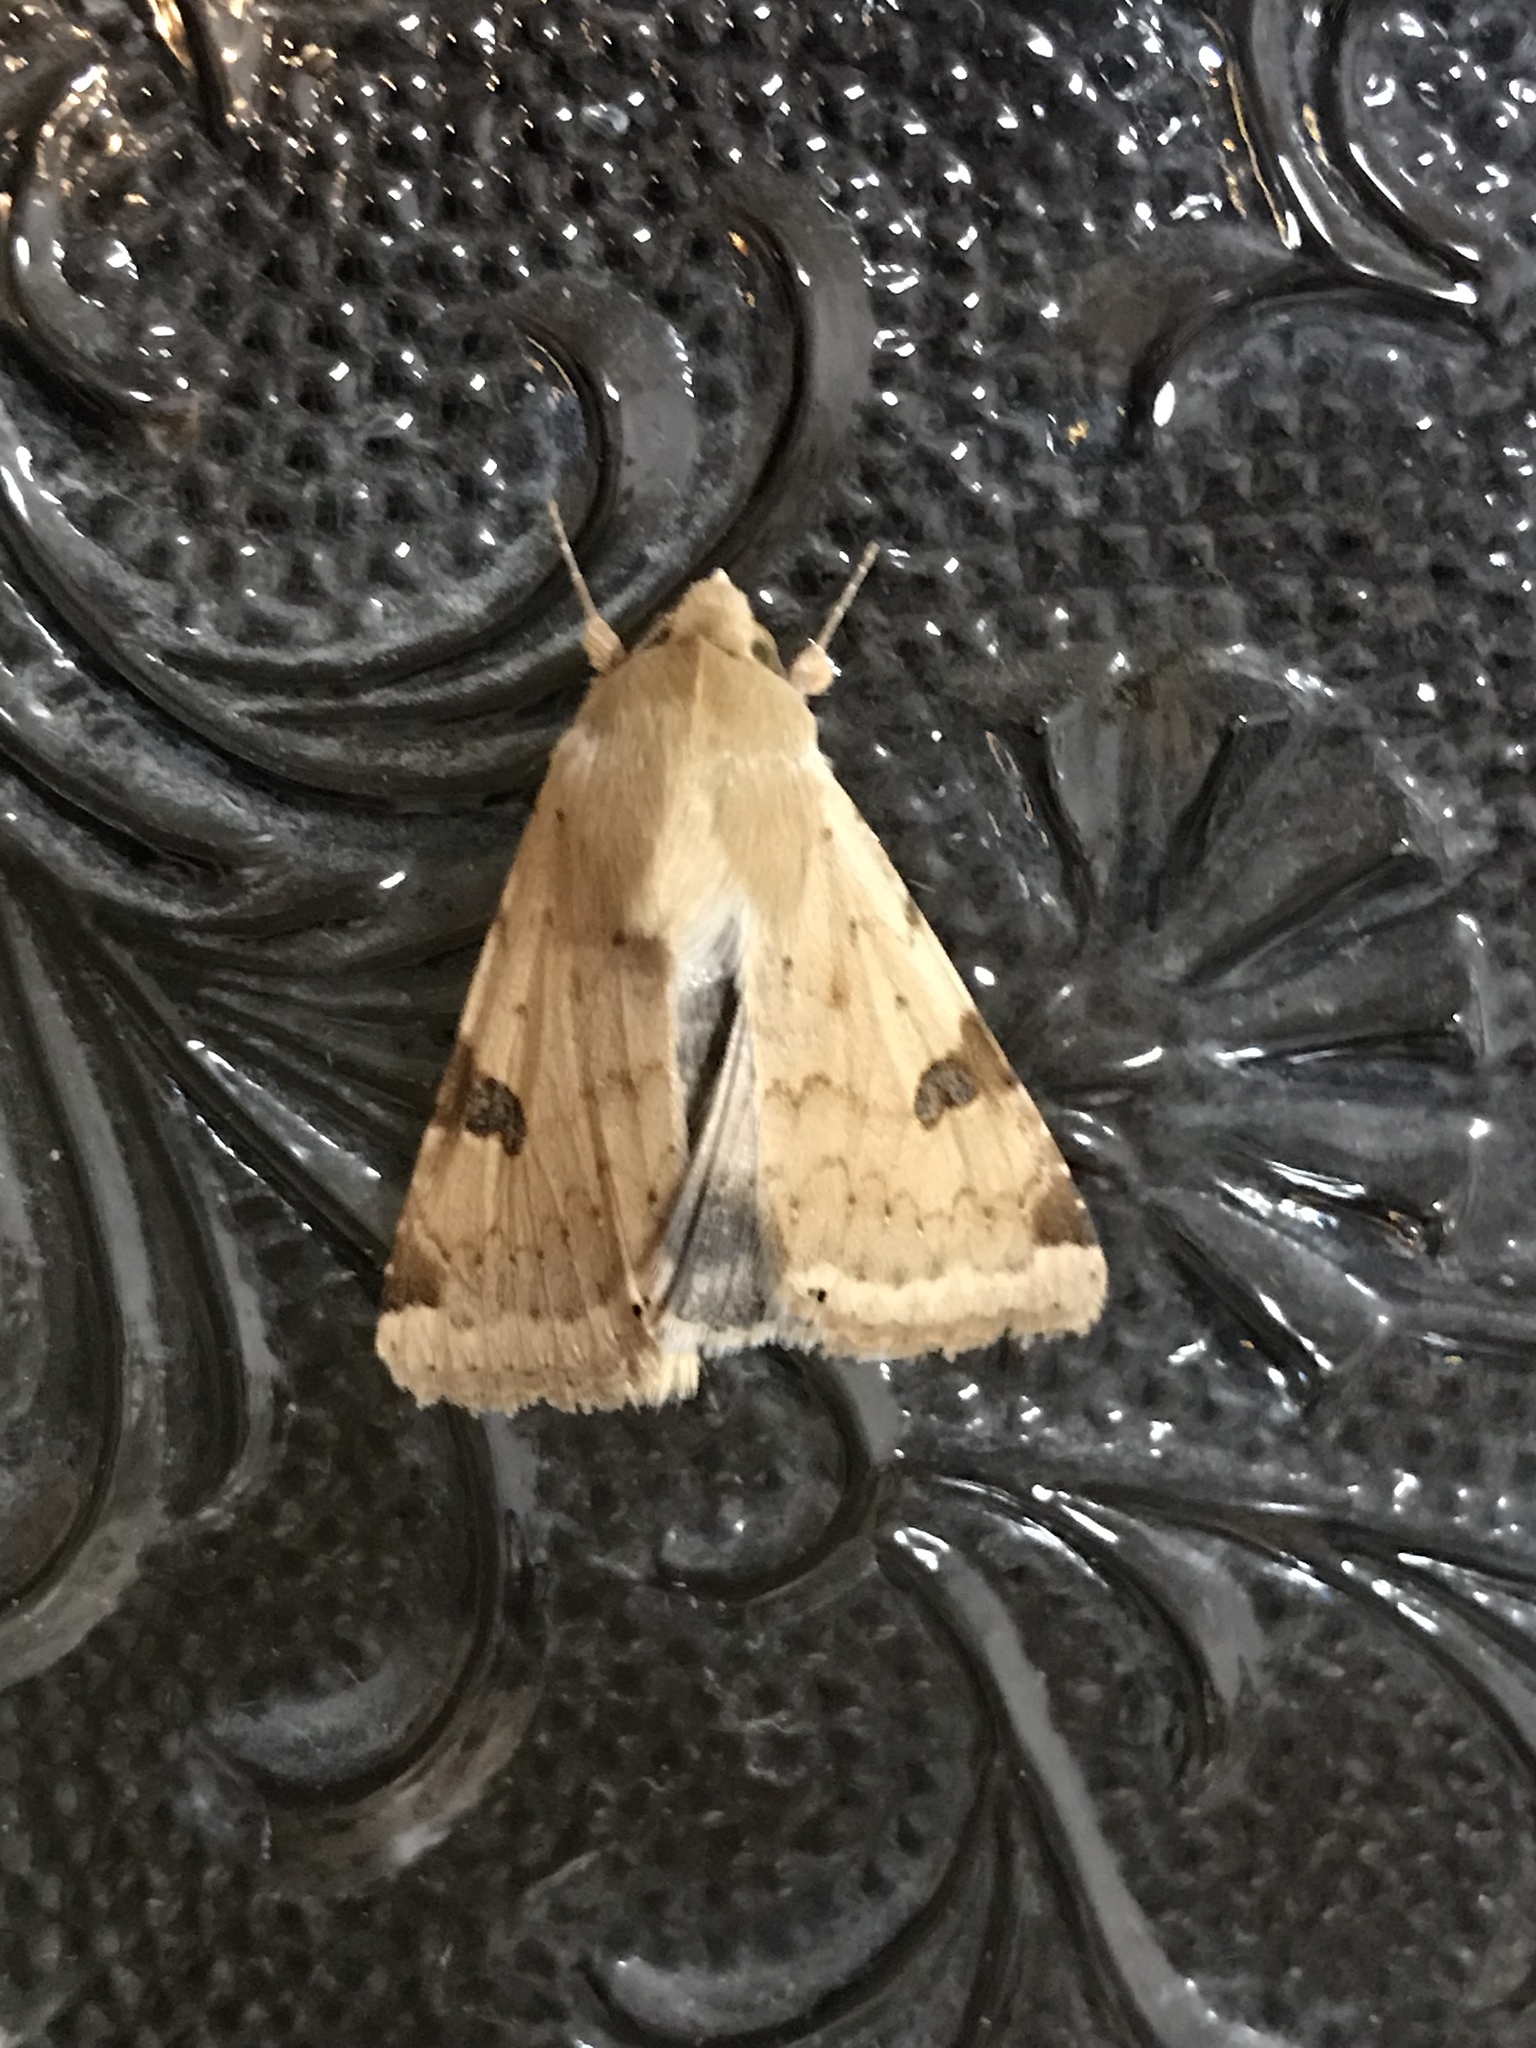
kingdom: Animalia
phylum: Arthropoda
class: Insecta
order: Lepidoptera
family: Noctuidae
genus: Heliothis
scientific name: Heliothis peltigera
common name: Bordered straw
